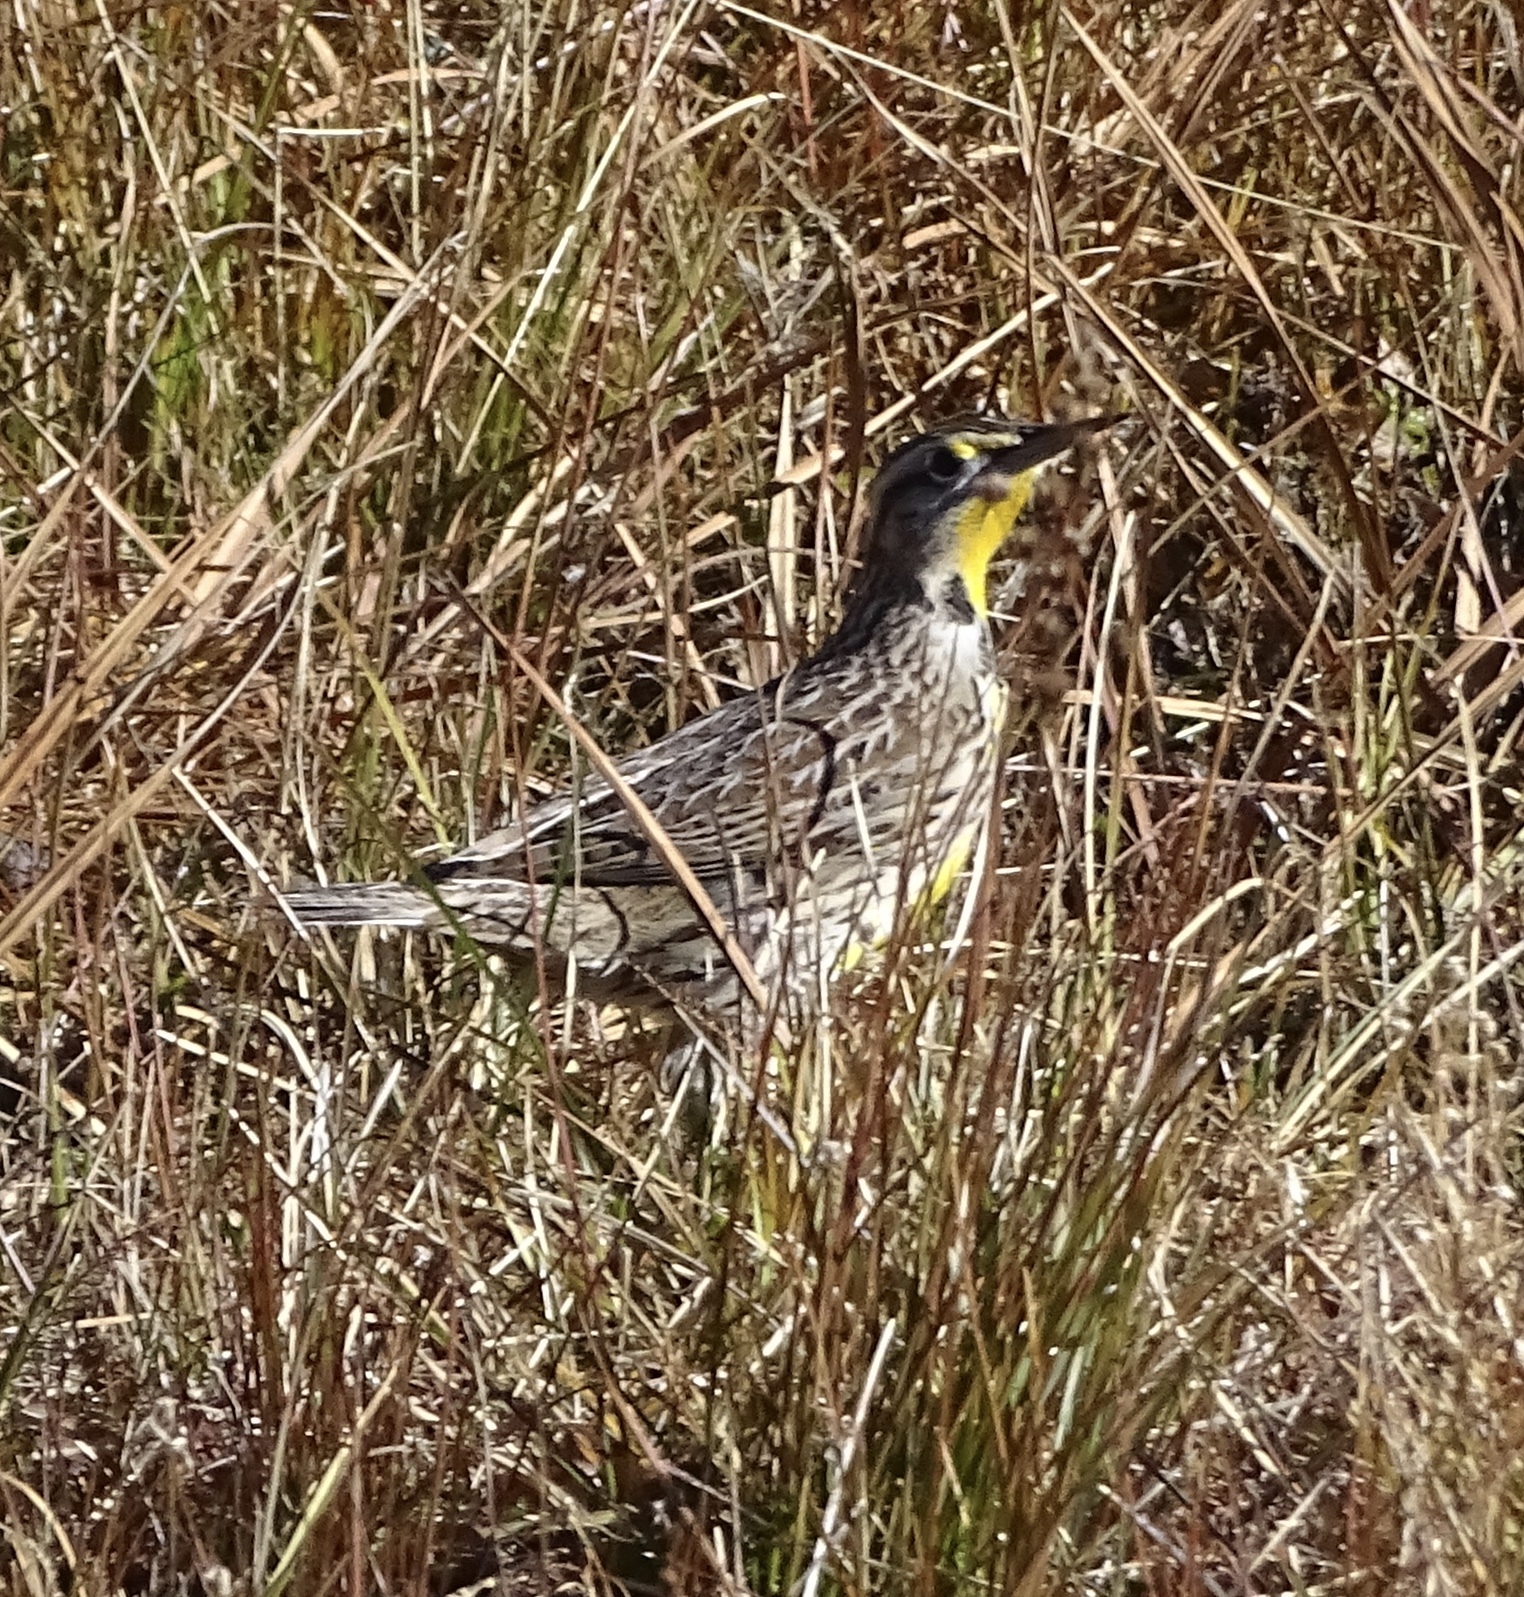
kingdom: Animalia
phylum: Chordata
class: Aves
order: Passeriformes
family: Icteridae
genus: Sturnella
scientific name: Sturnella neglecta
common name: Western meadowlark
